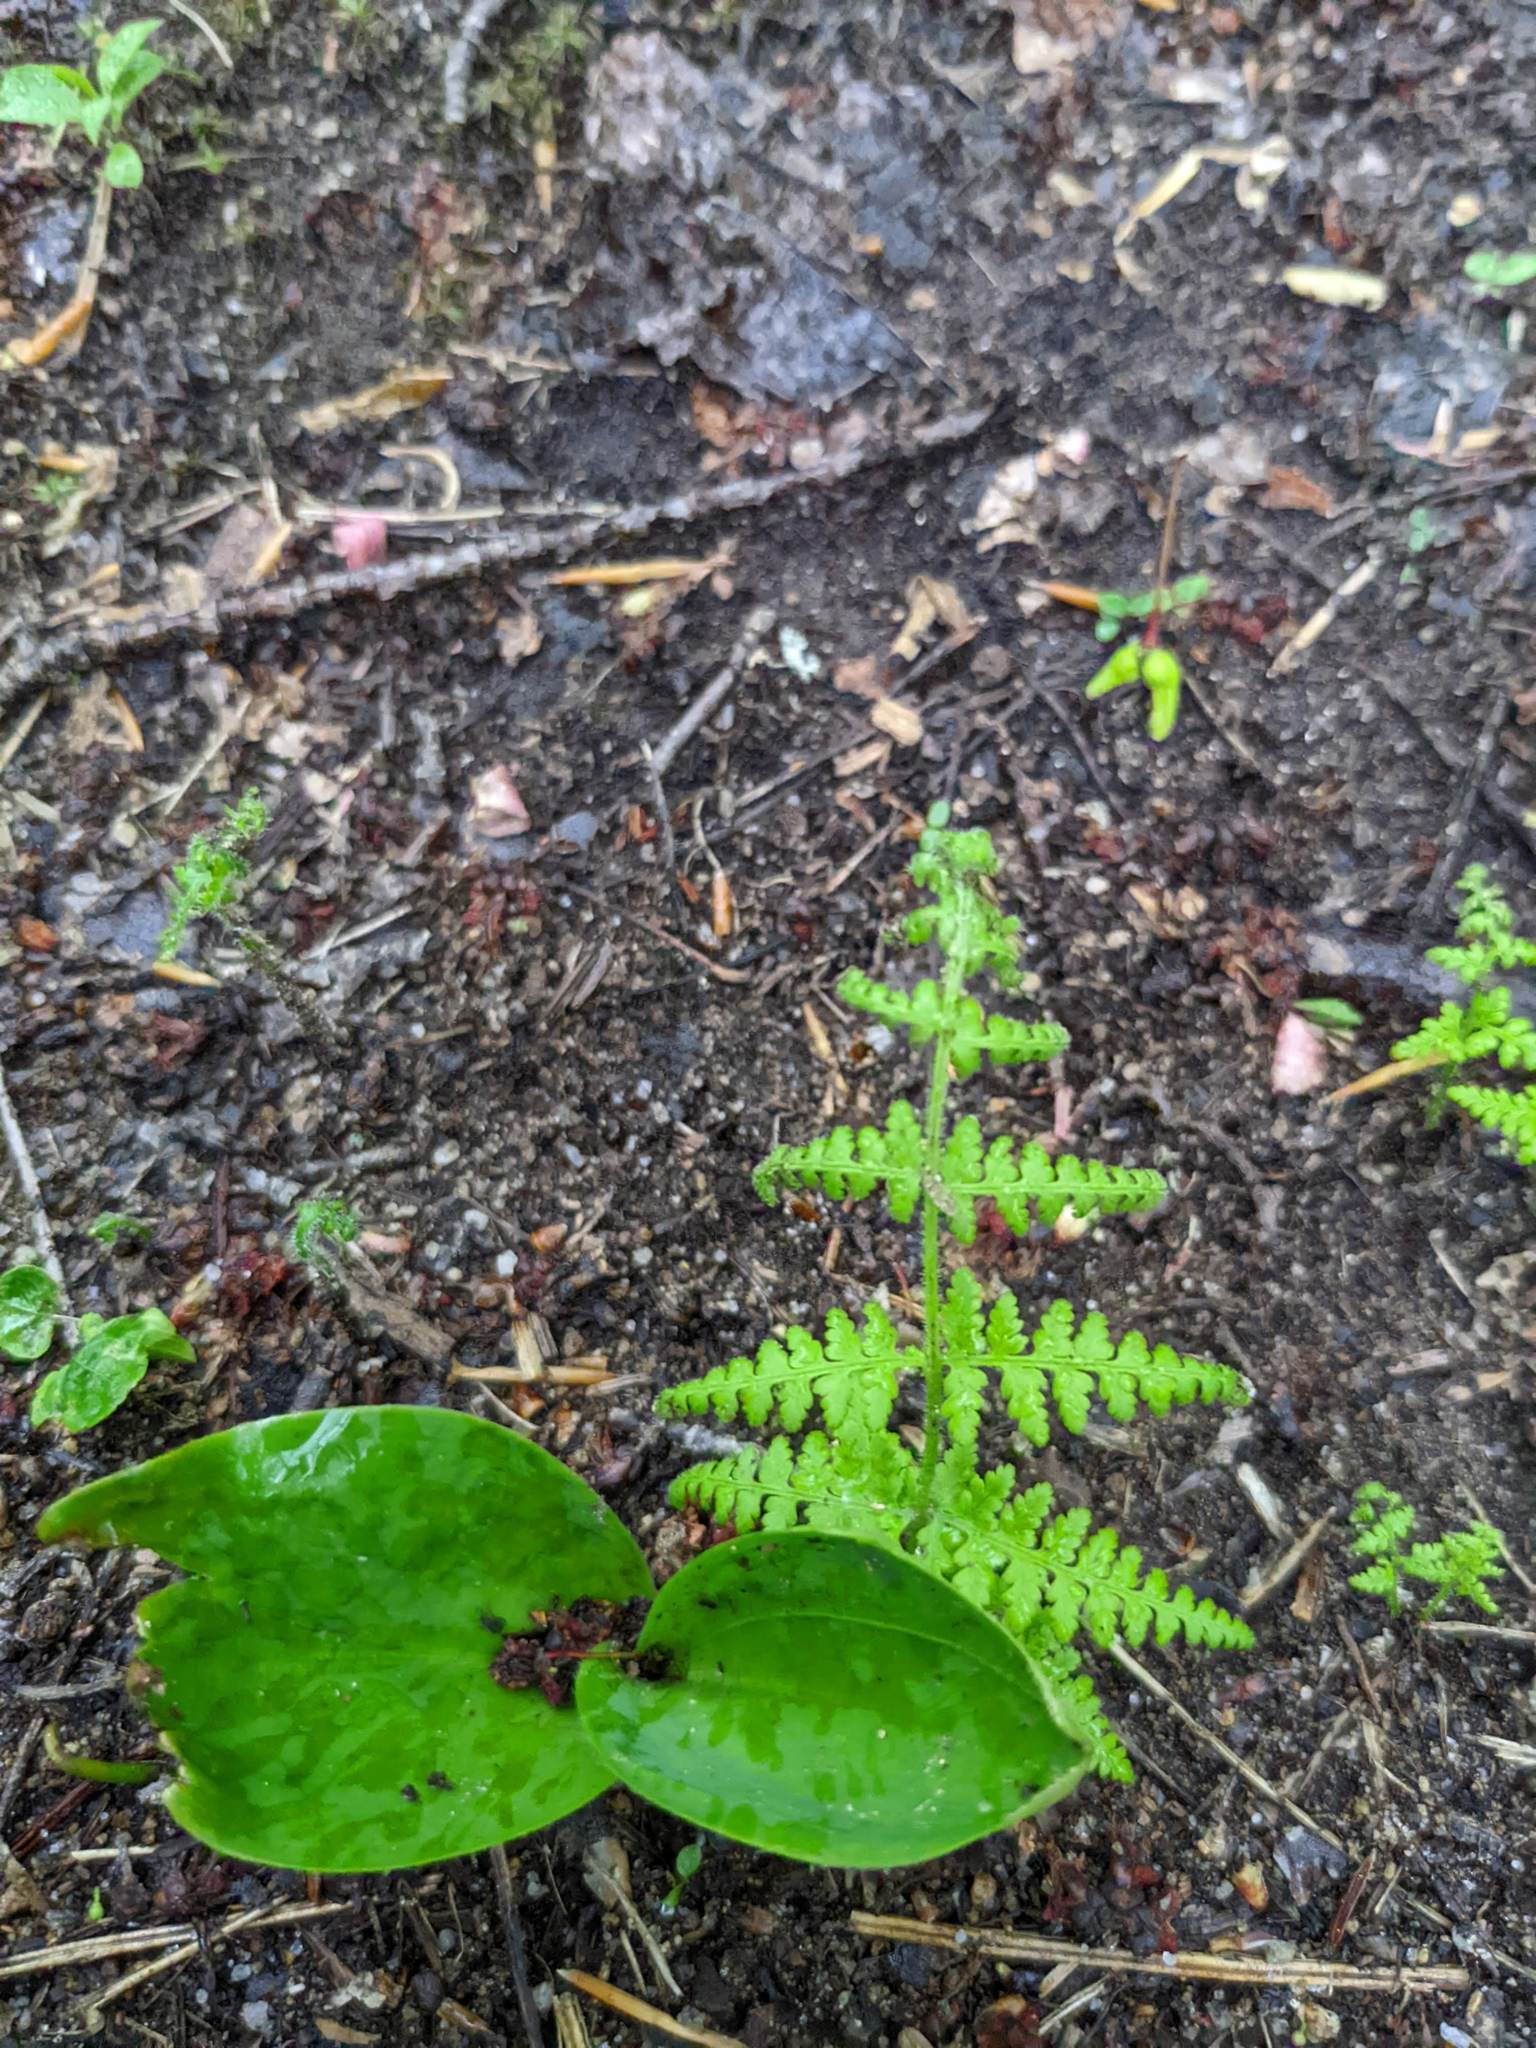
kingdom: Plantae
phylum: Tracheophyta
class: Polypodiopsida
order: Polypodiales
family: Dennstaedtiaceae
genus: Sitobolium
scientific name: Sitobolium punctilobum
